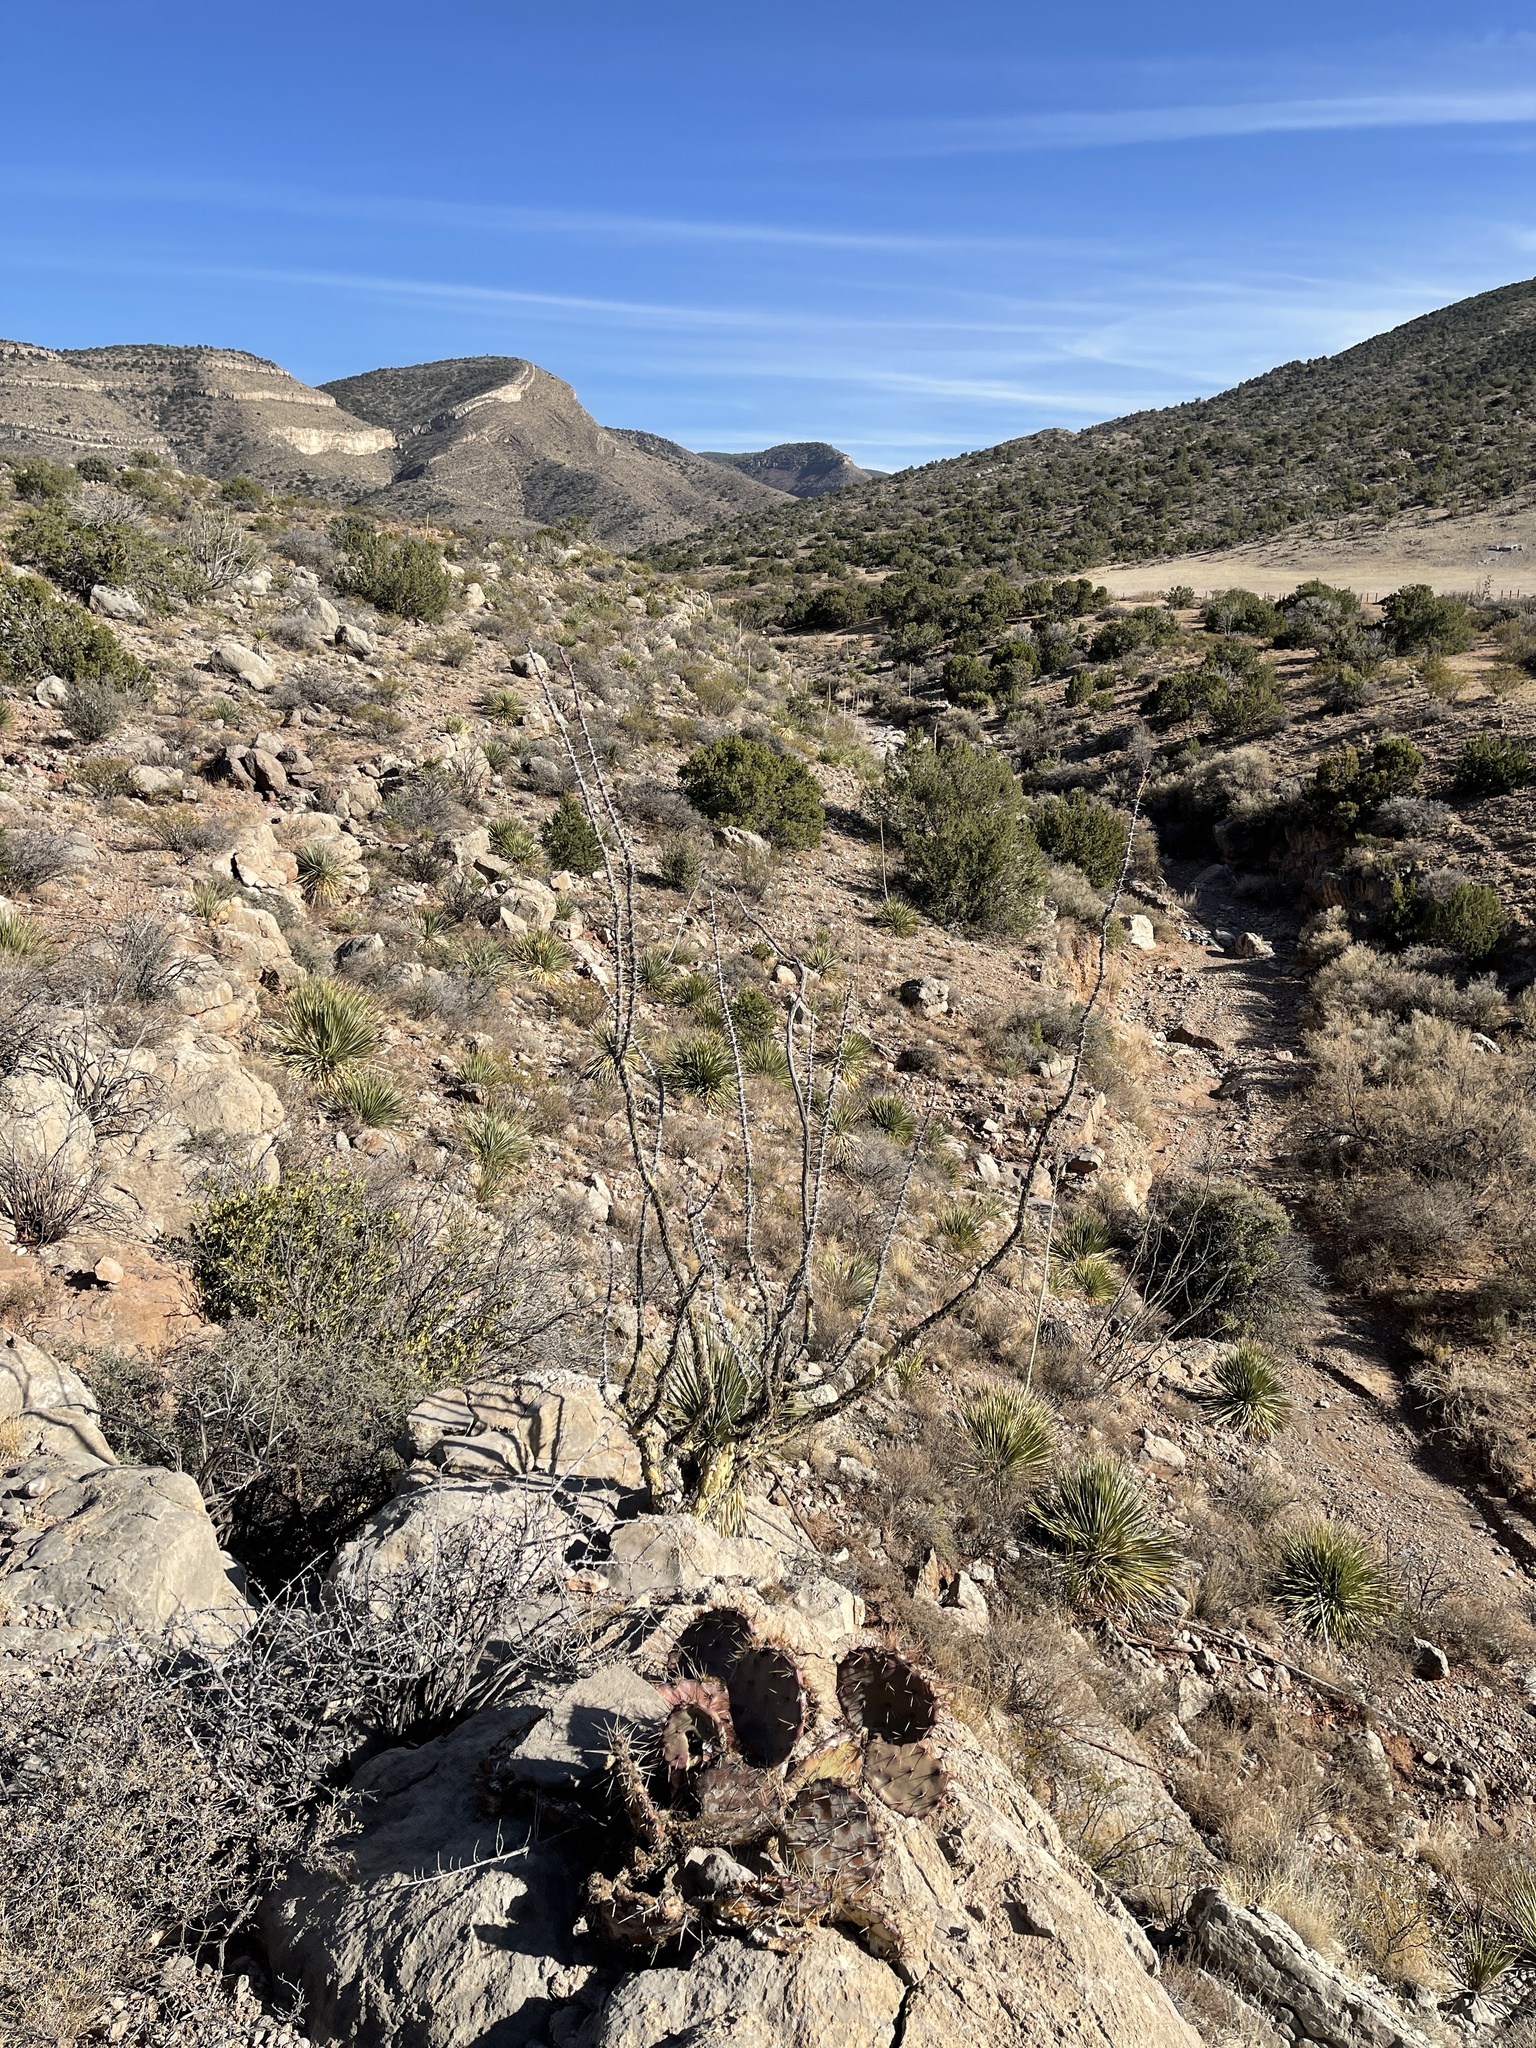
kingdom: Plantae
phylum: Tracheophyta
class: Magnoliopsida
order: Ericales
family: Fouquieriaceae
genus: Fouquieria
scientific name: Fouquieria splendens
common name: Vine-cactus
